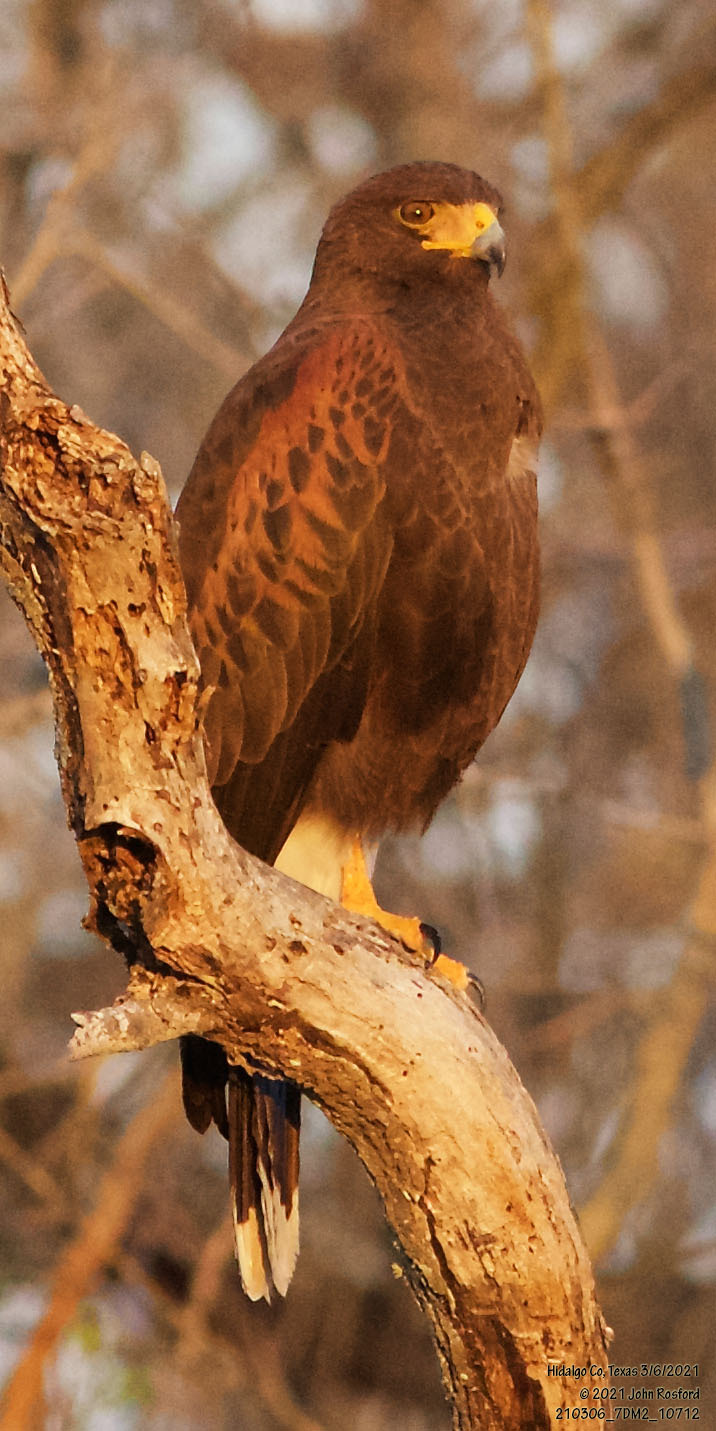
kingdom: Animalia
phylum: Chordata
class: Aves
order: Accipitriformes
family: Accipitridae
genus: Parabuteo
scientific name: Parabuteo unicinctus
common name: Harris's hawk
